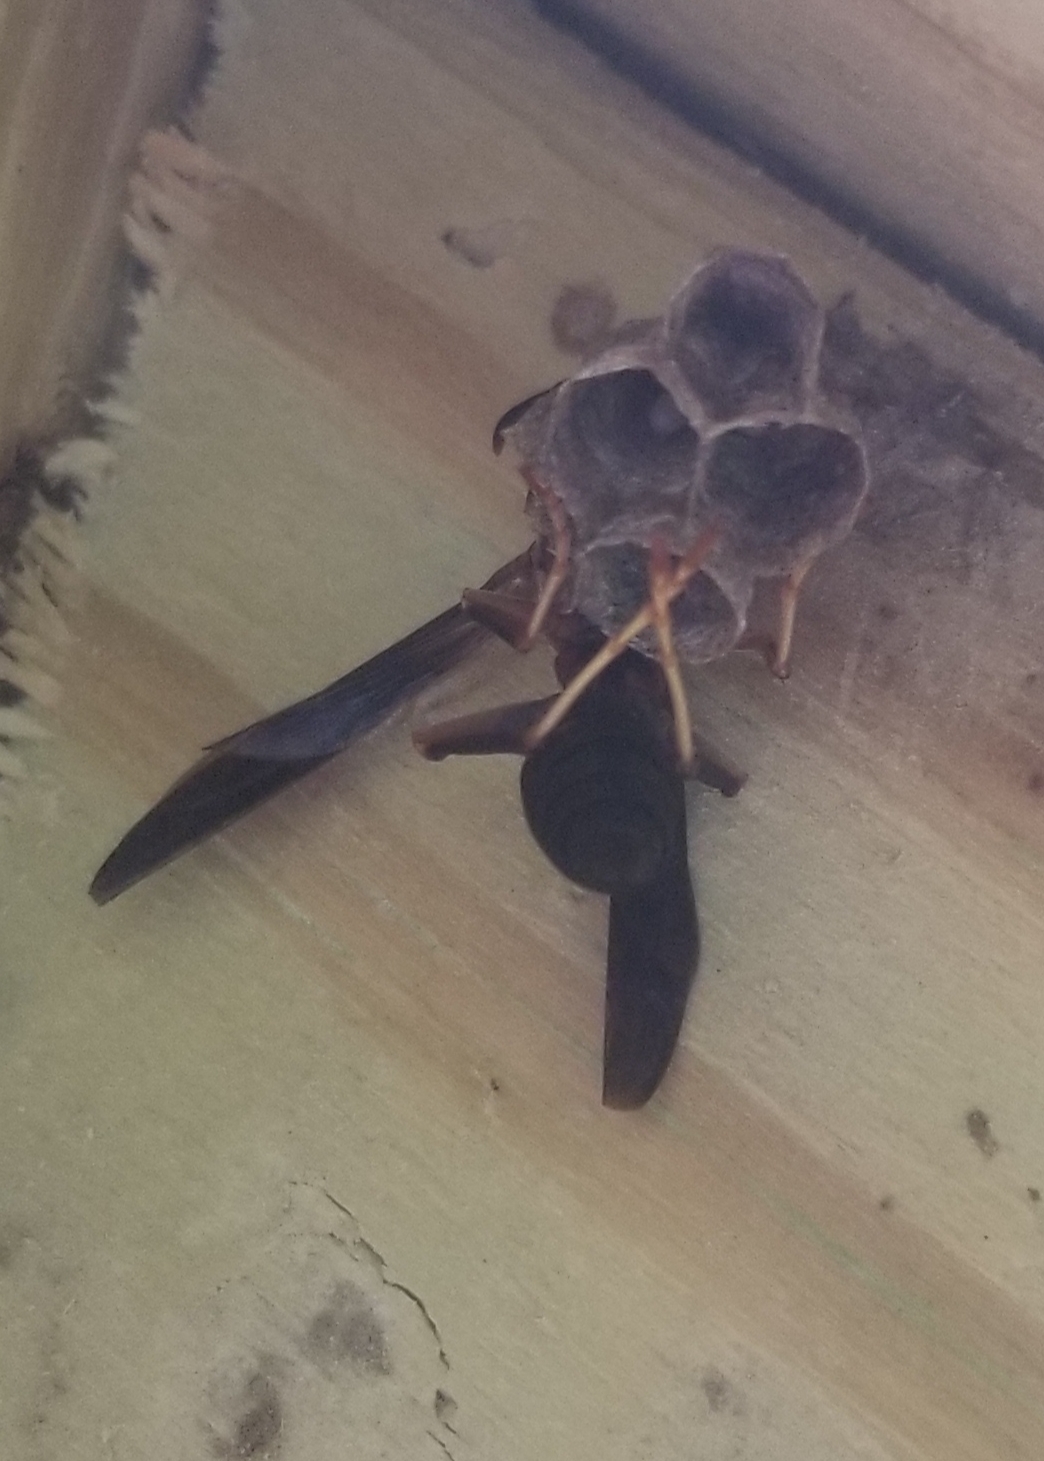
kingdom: Animalia
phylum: Arthropoda
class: Insecta
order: Hymenoptera
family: Vespidae
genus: Fuscopolistes
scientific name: Fuscopolistes
